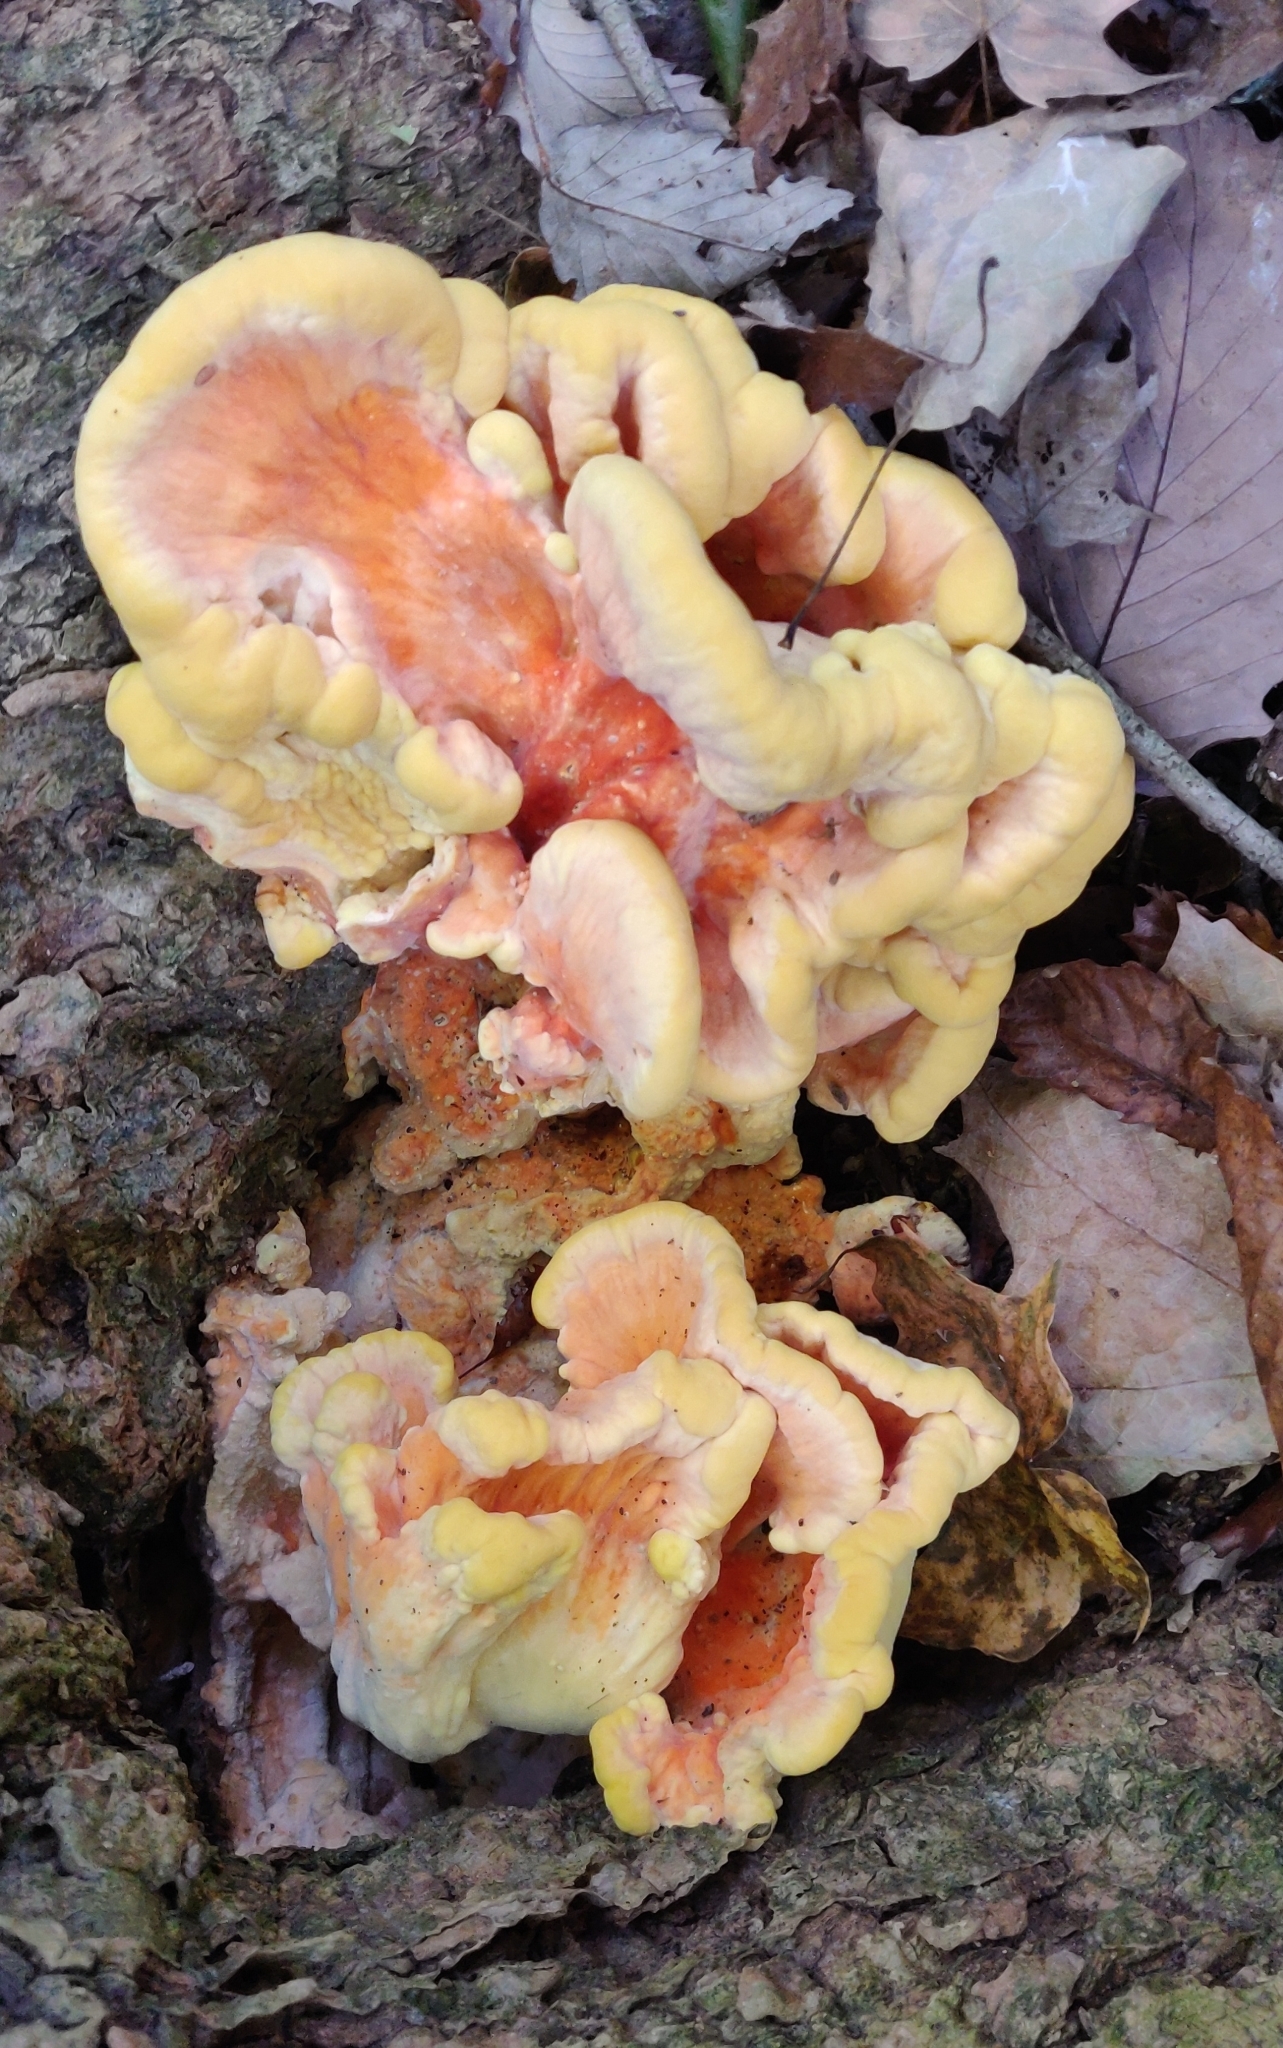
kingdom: Fungi
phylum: Basidiomycota
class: Agaricomycetes
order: Polyporales
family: Laetiporaceae
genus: Laetiporus
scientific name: Laetiporus sulphureus
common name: Chicken of the woods
